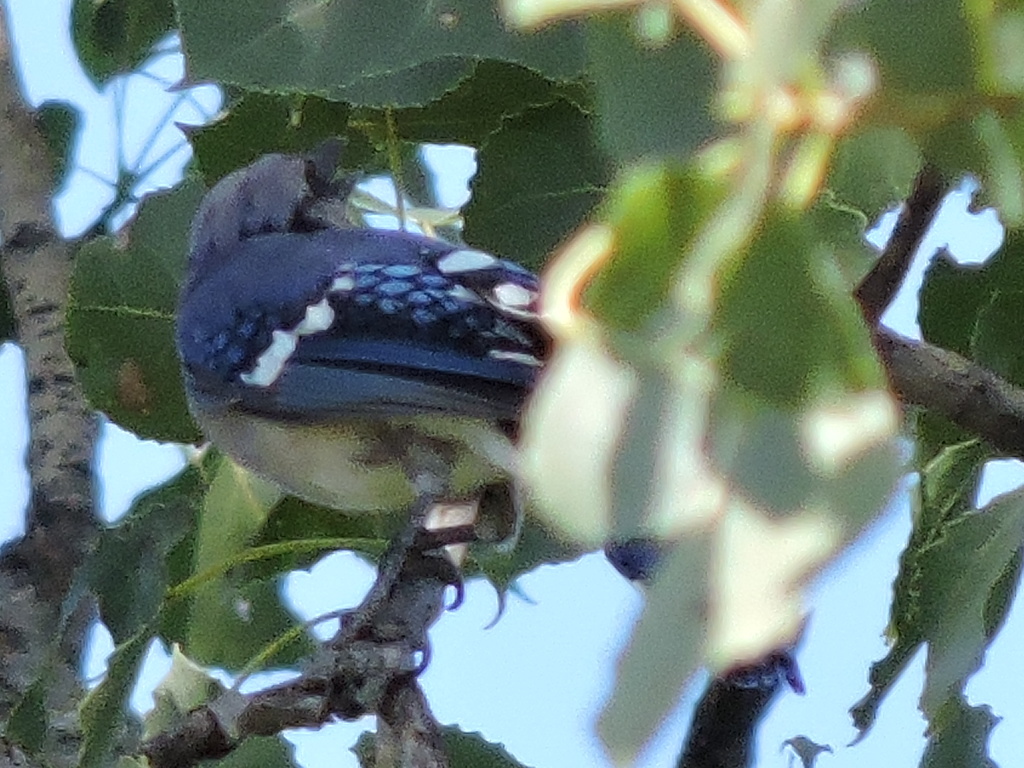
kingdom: Animalia
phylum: Chordata
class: Aves
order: Passeriformes
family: Corvidae
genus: Cyanocitta
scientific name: Cyanocitta cristata
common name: Blue jay
